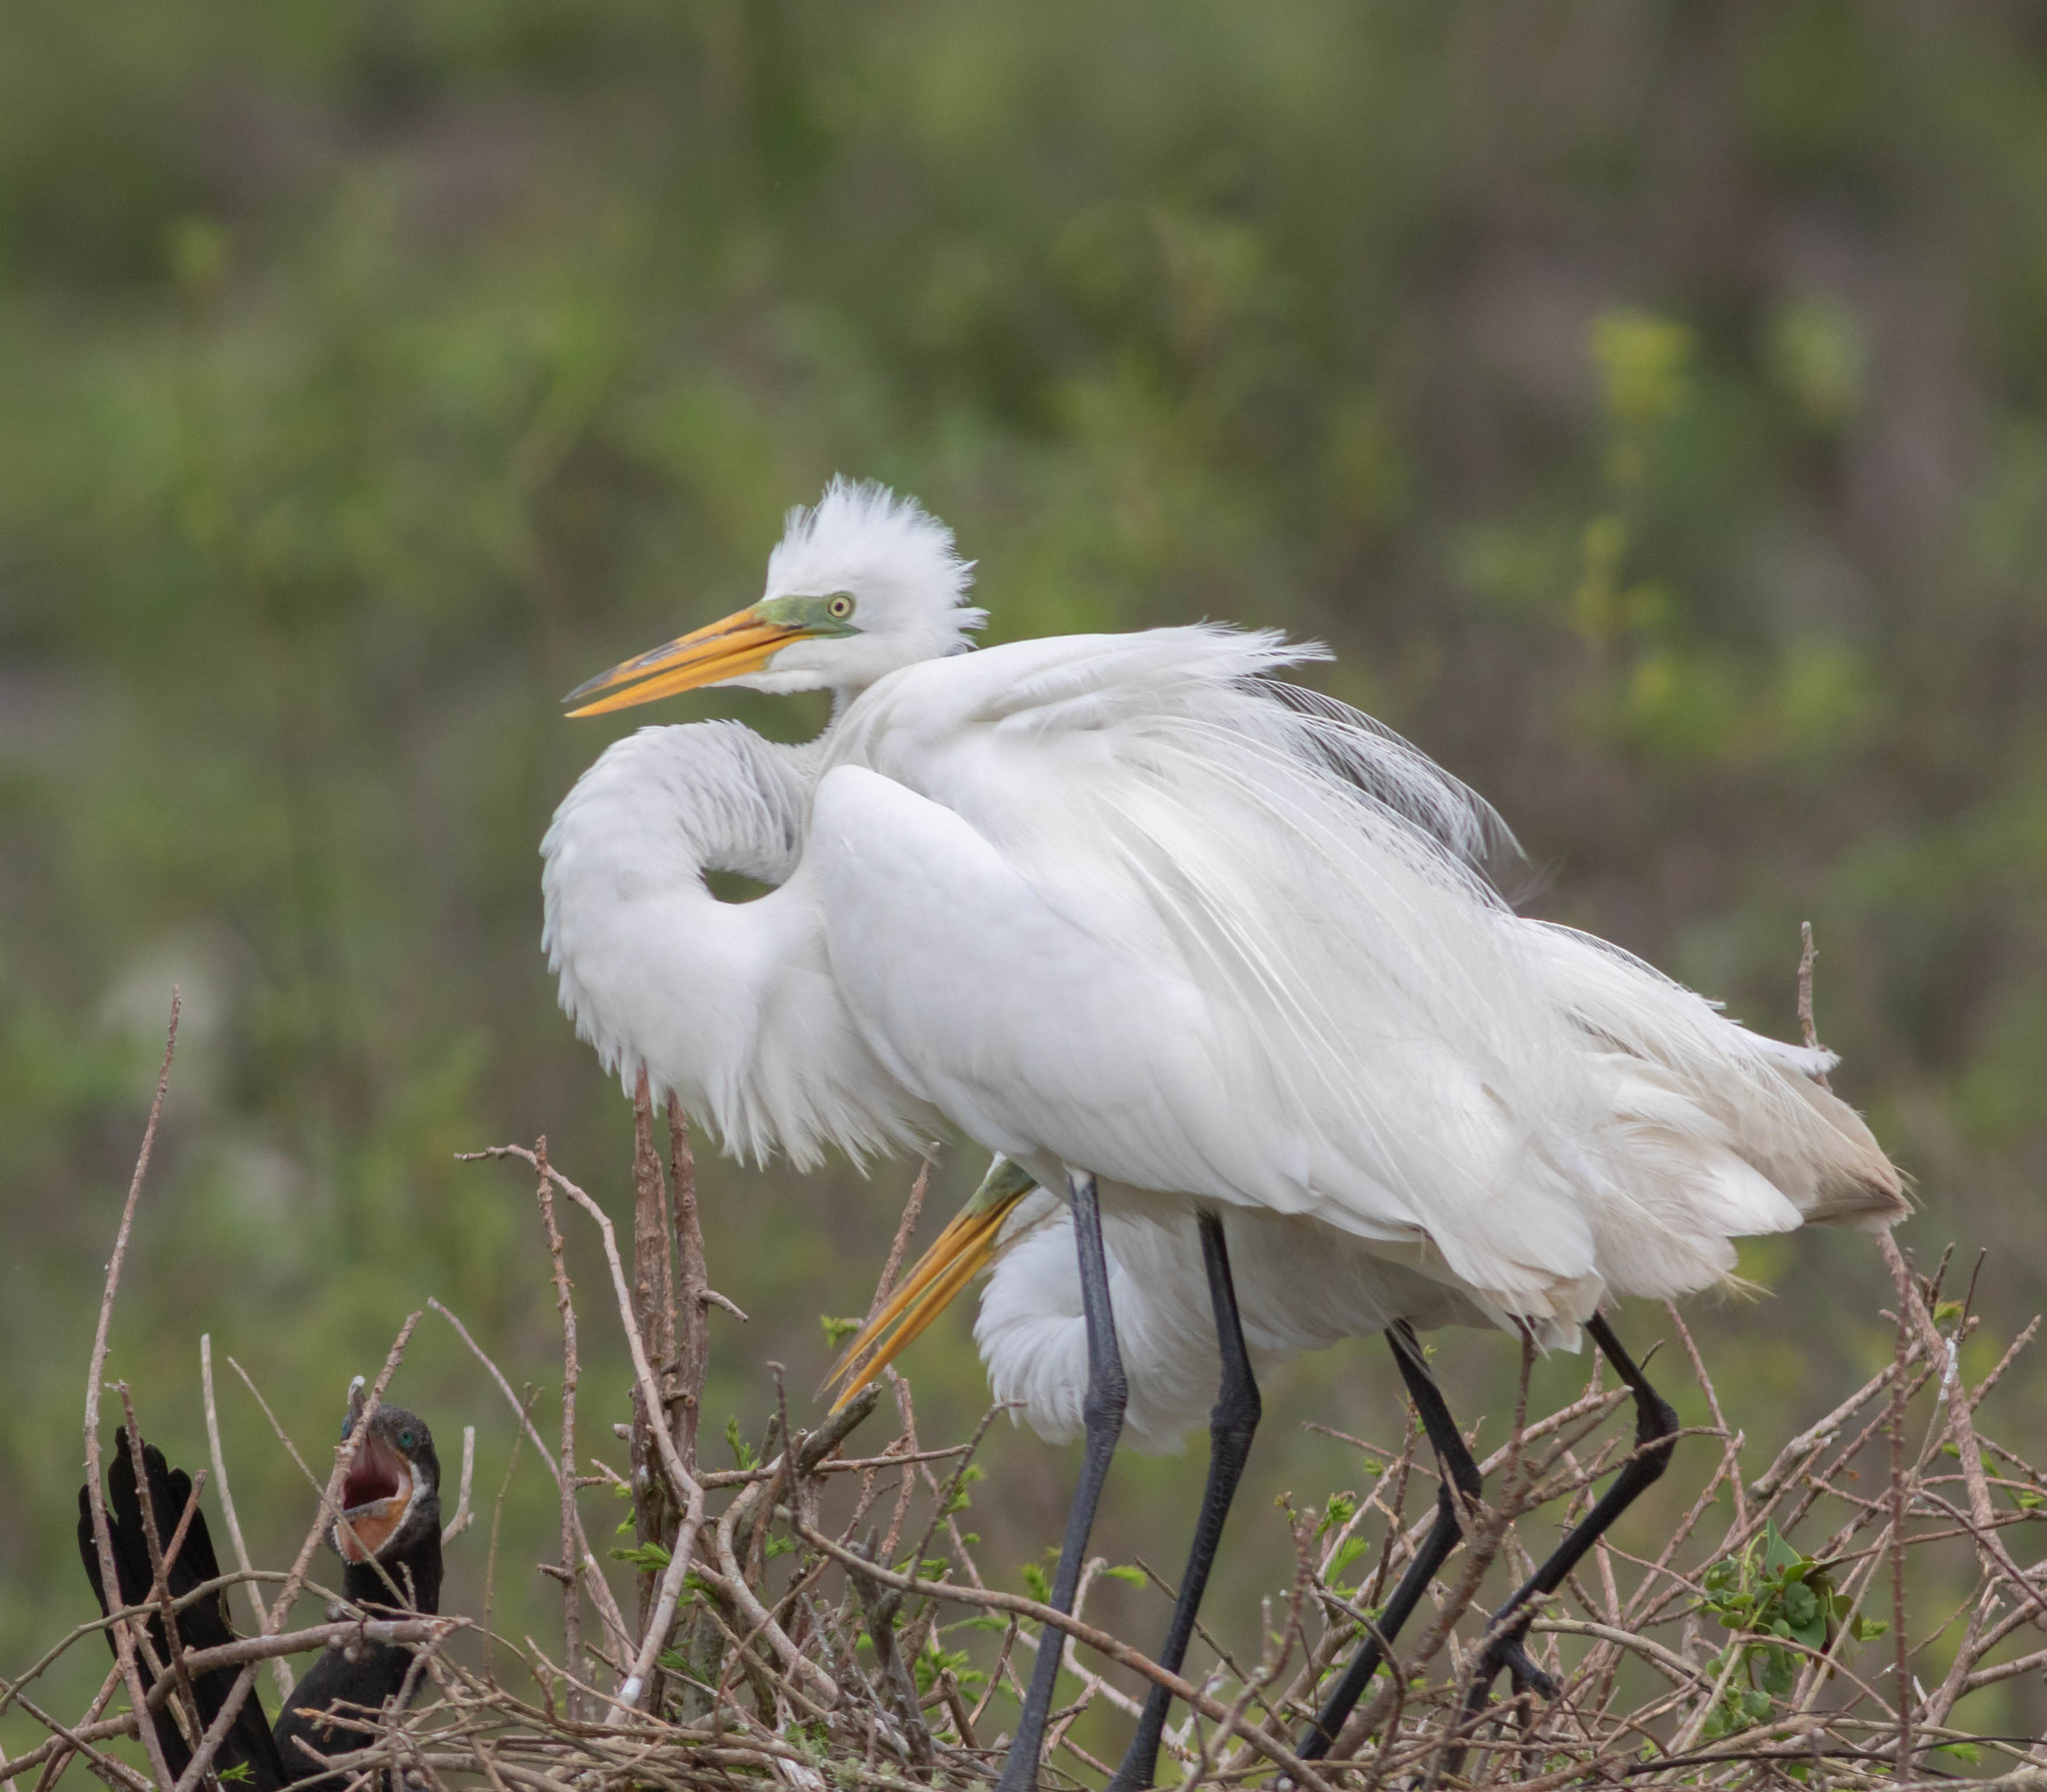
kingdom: Animalia
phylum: Chordata
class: Aves
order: Pelecaniformes
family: Ardeidae
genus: Ardea
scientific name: Ardea alba
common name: Great egret
